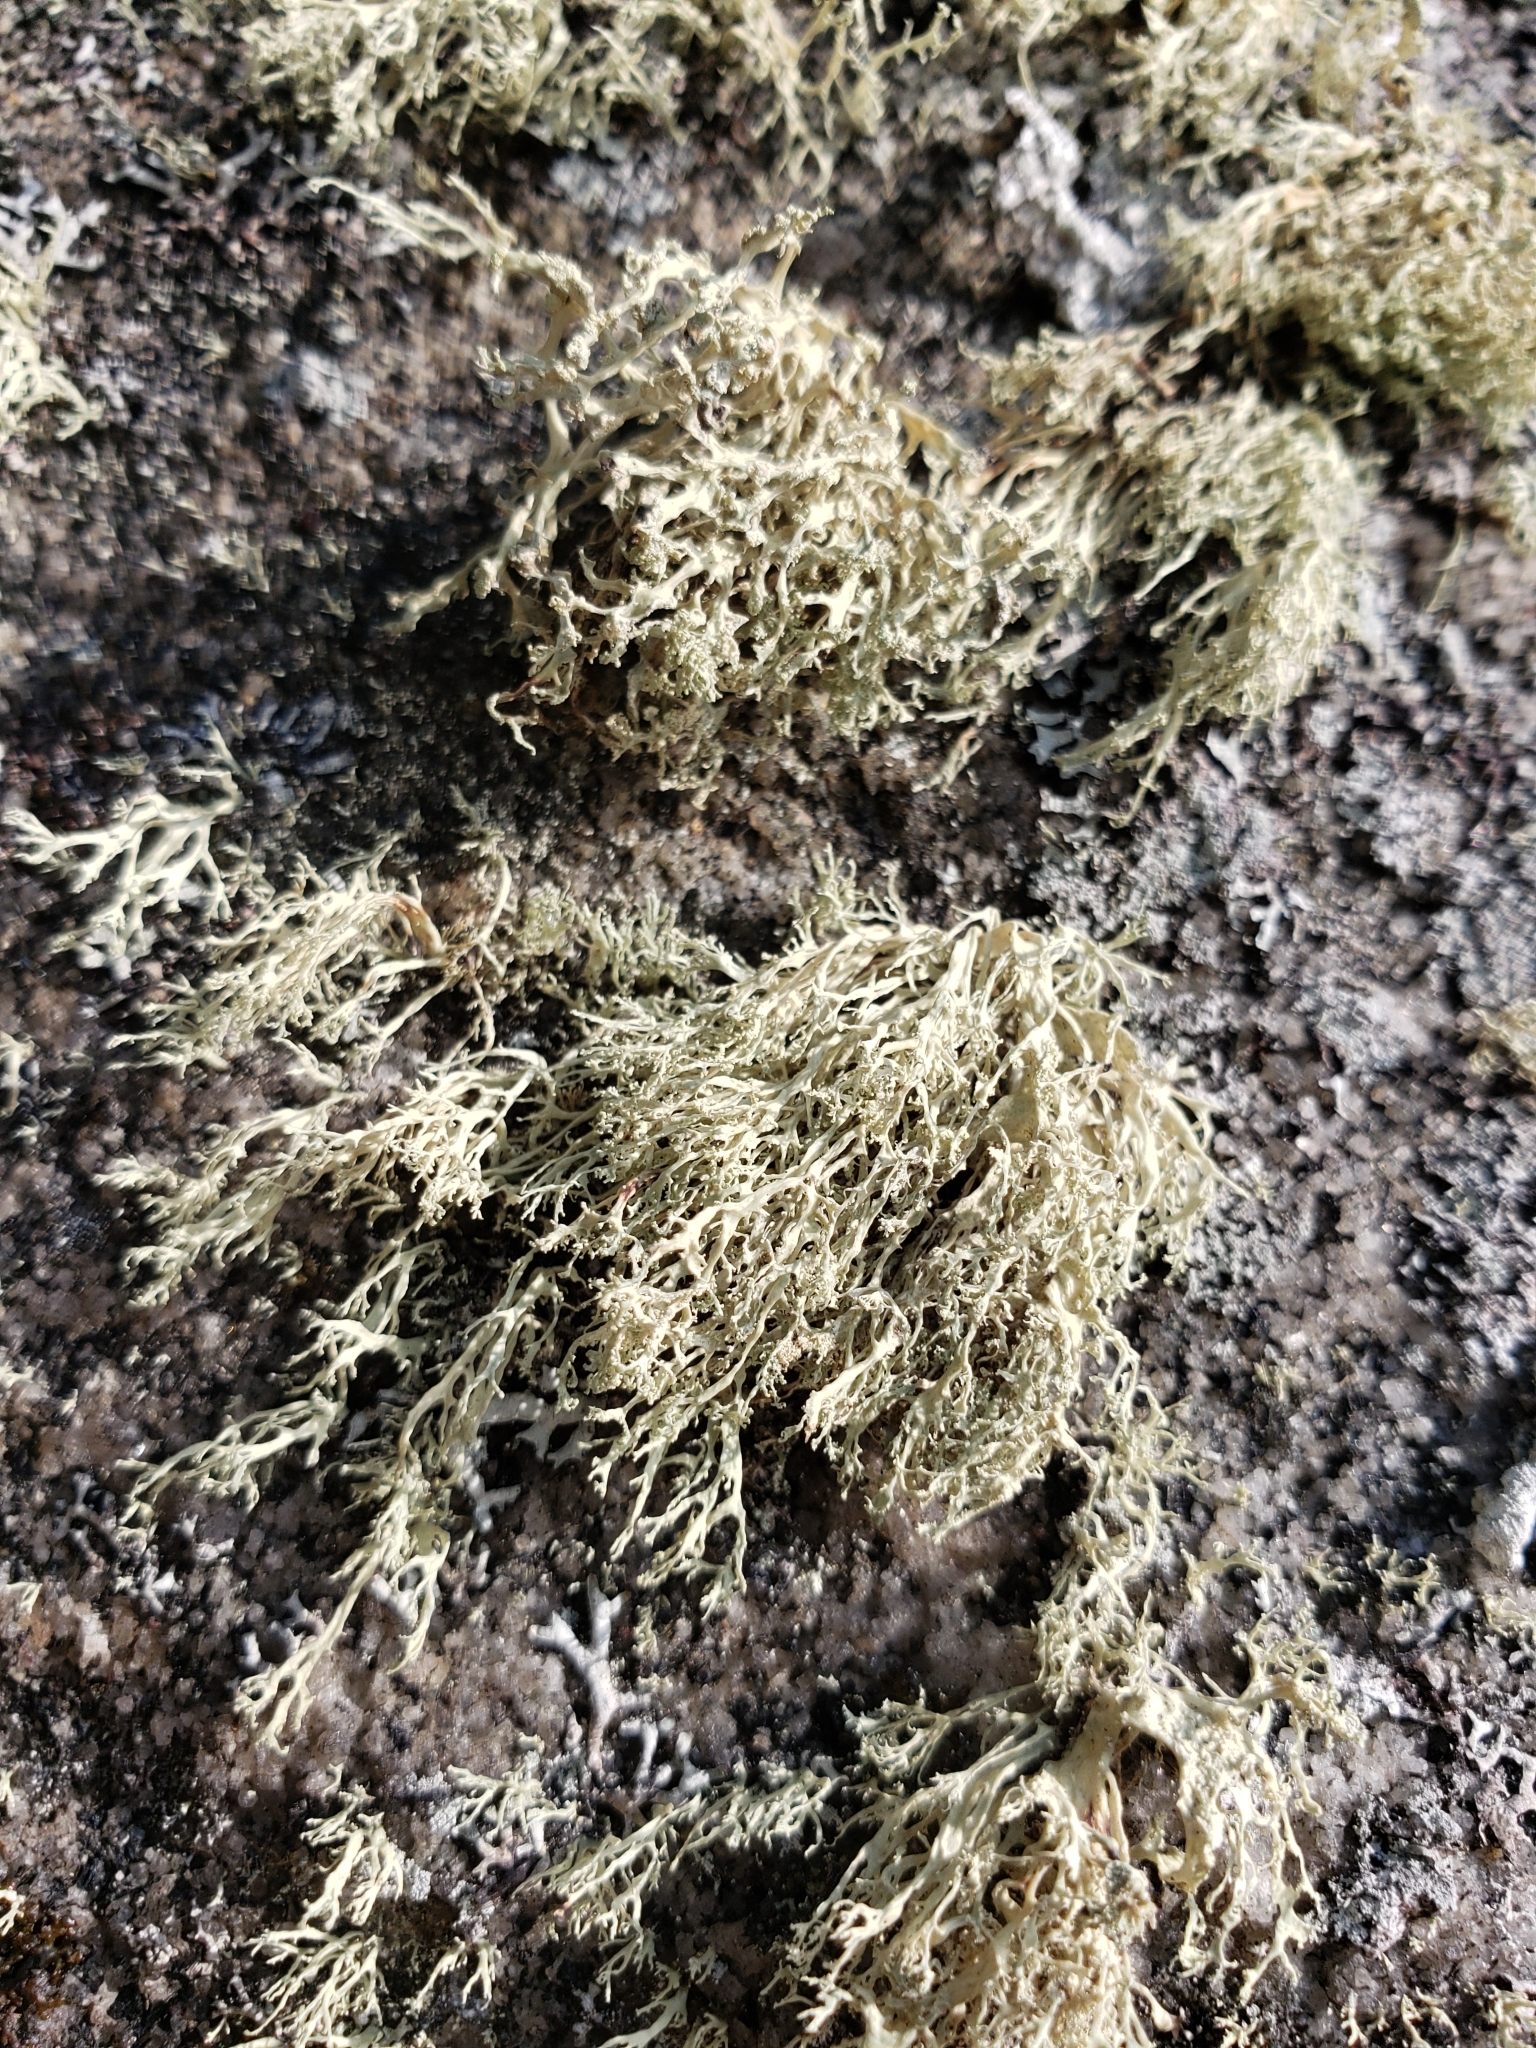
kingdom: Fungi
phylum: Ascomycota
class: Lecanoromycetes
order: Lecanorales
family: Ramalinaceae
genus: Ramalina
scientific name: Ramalina intermedia
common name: Rock bushy lichen
